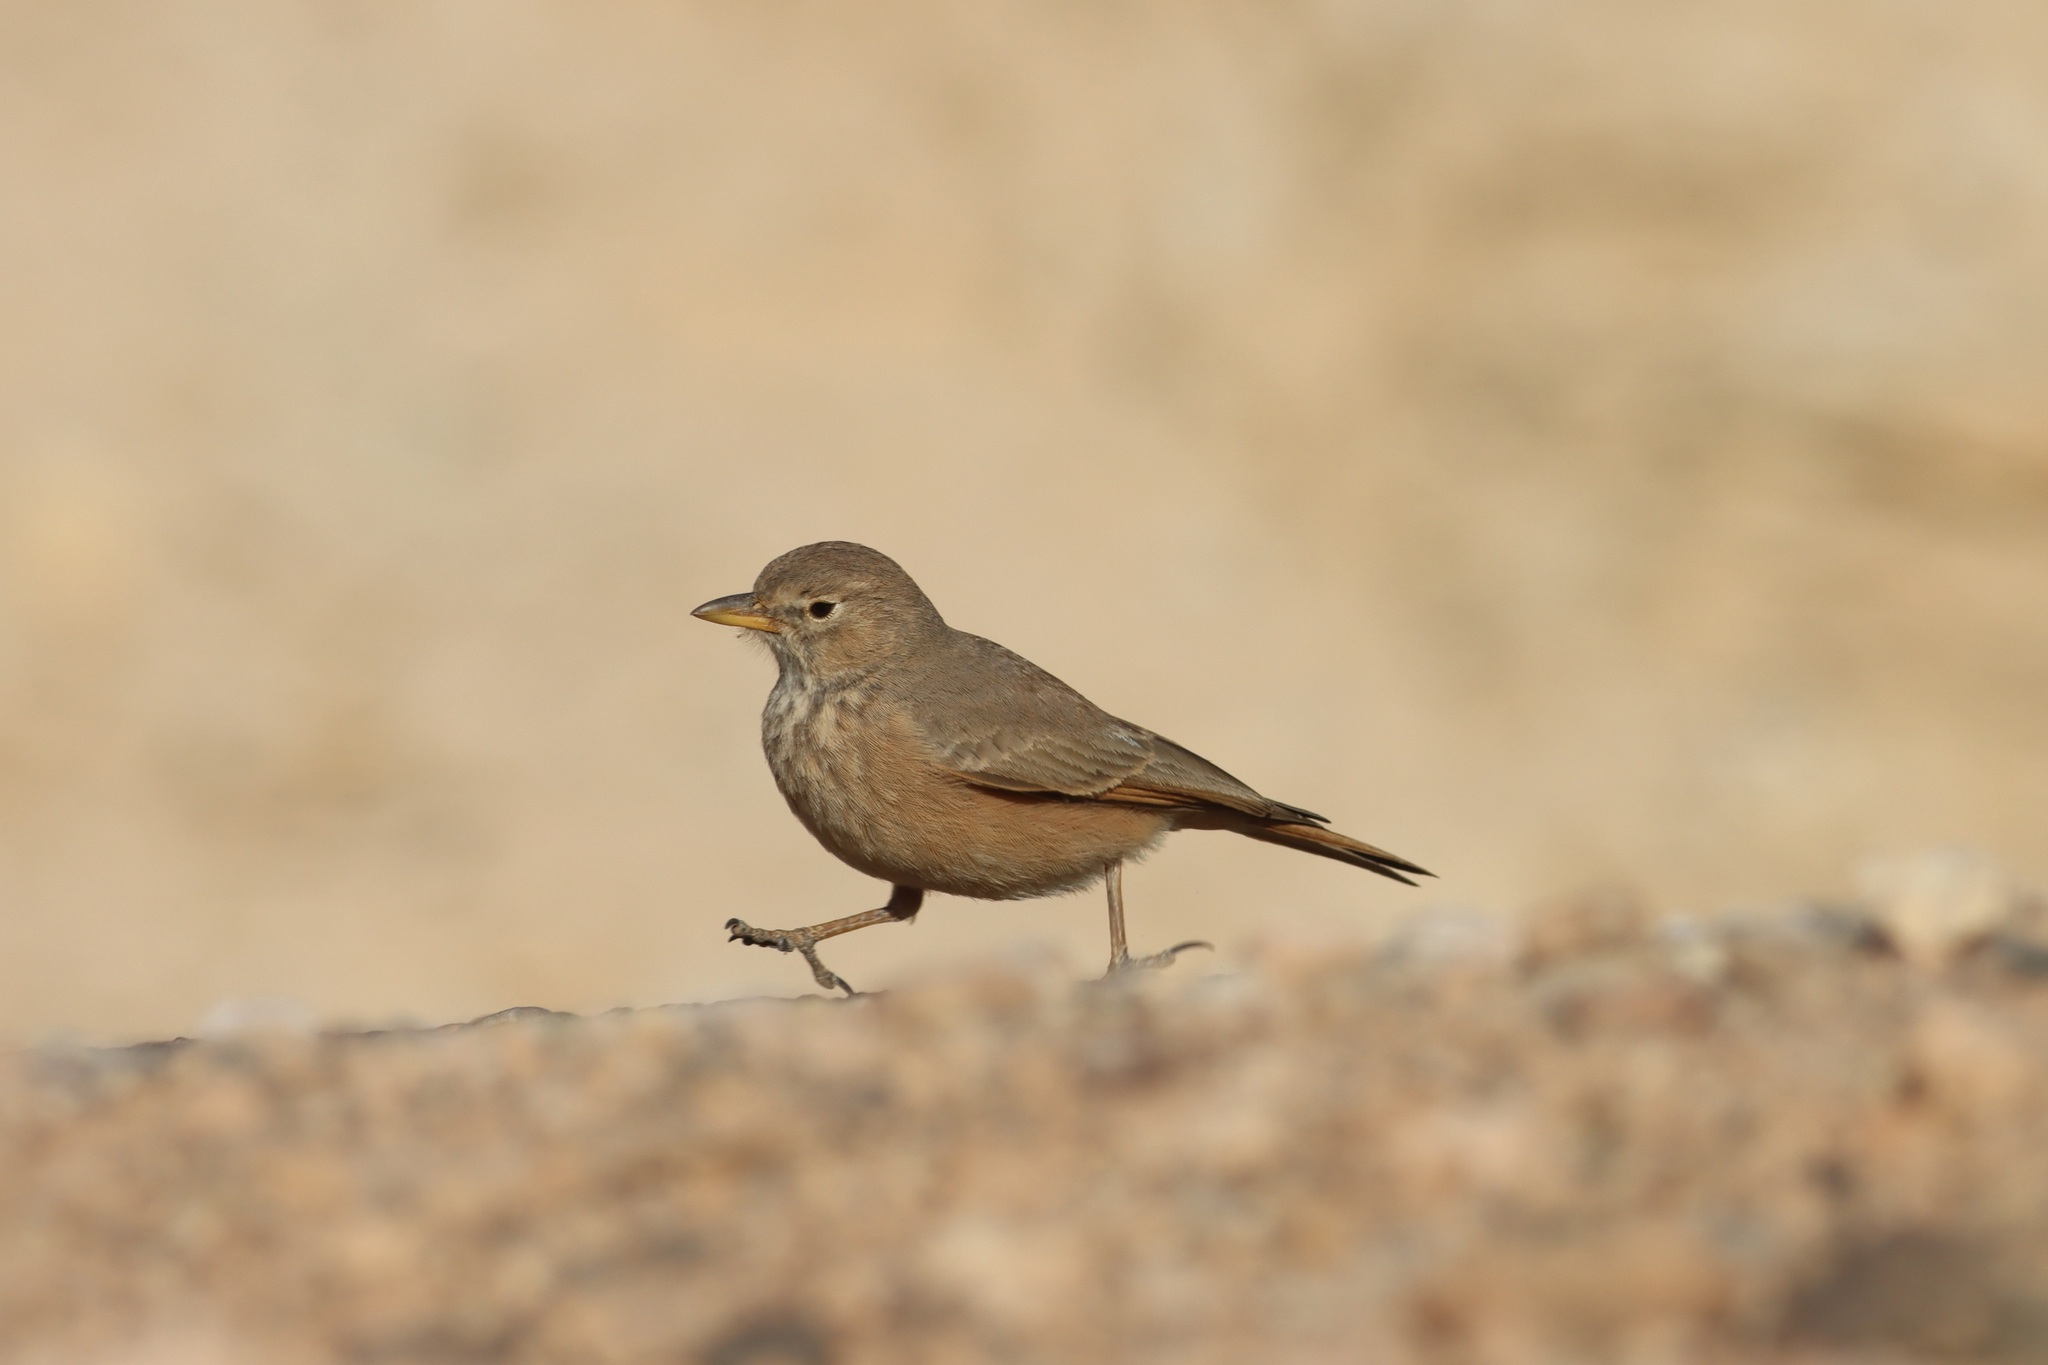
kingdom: Animalia
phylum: Chordata
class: Aves
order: Passeriformes
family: Alaudidae
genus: Ammomanes
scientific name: Ammomanes deserti
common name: Desert lark
